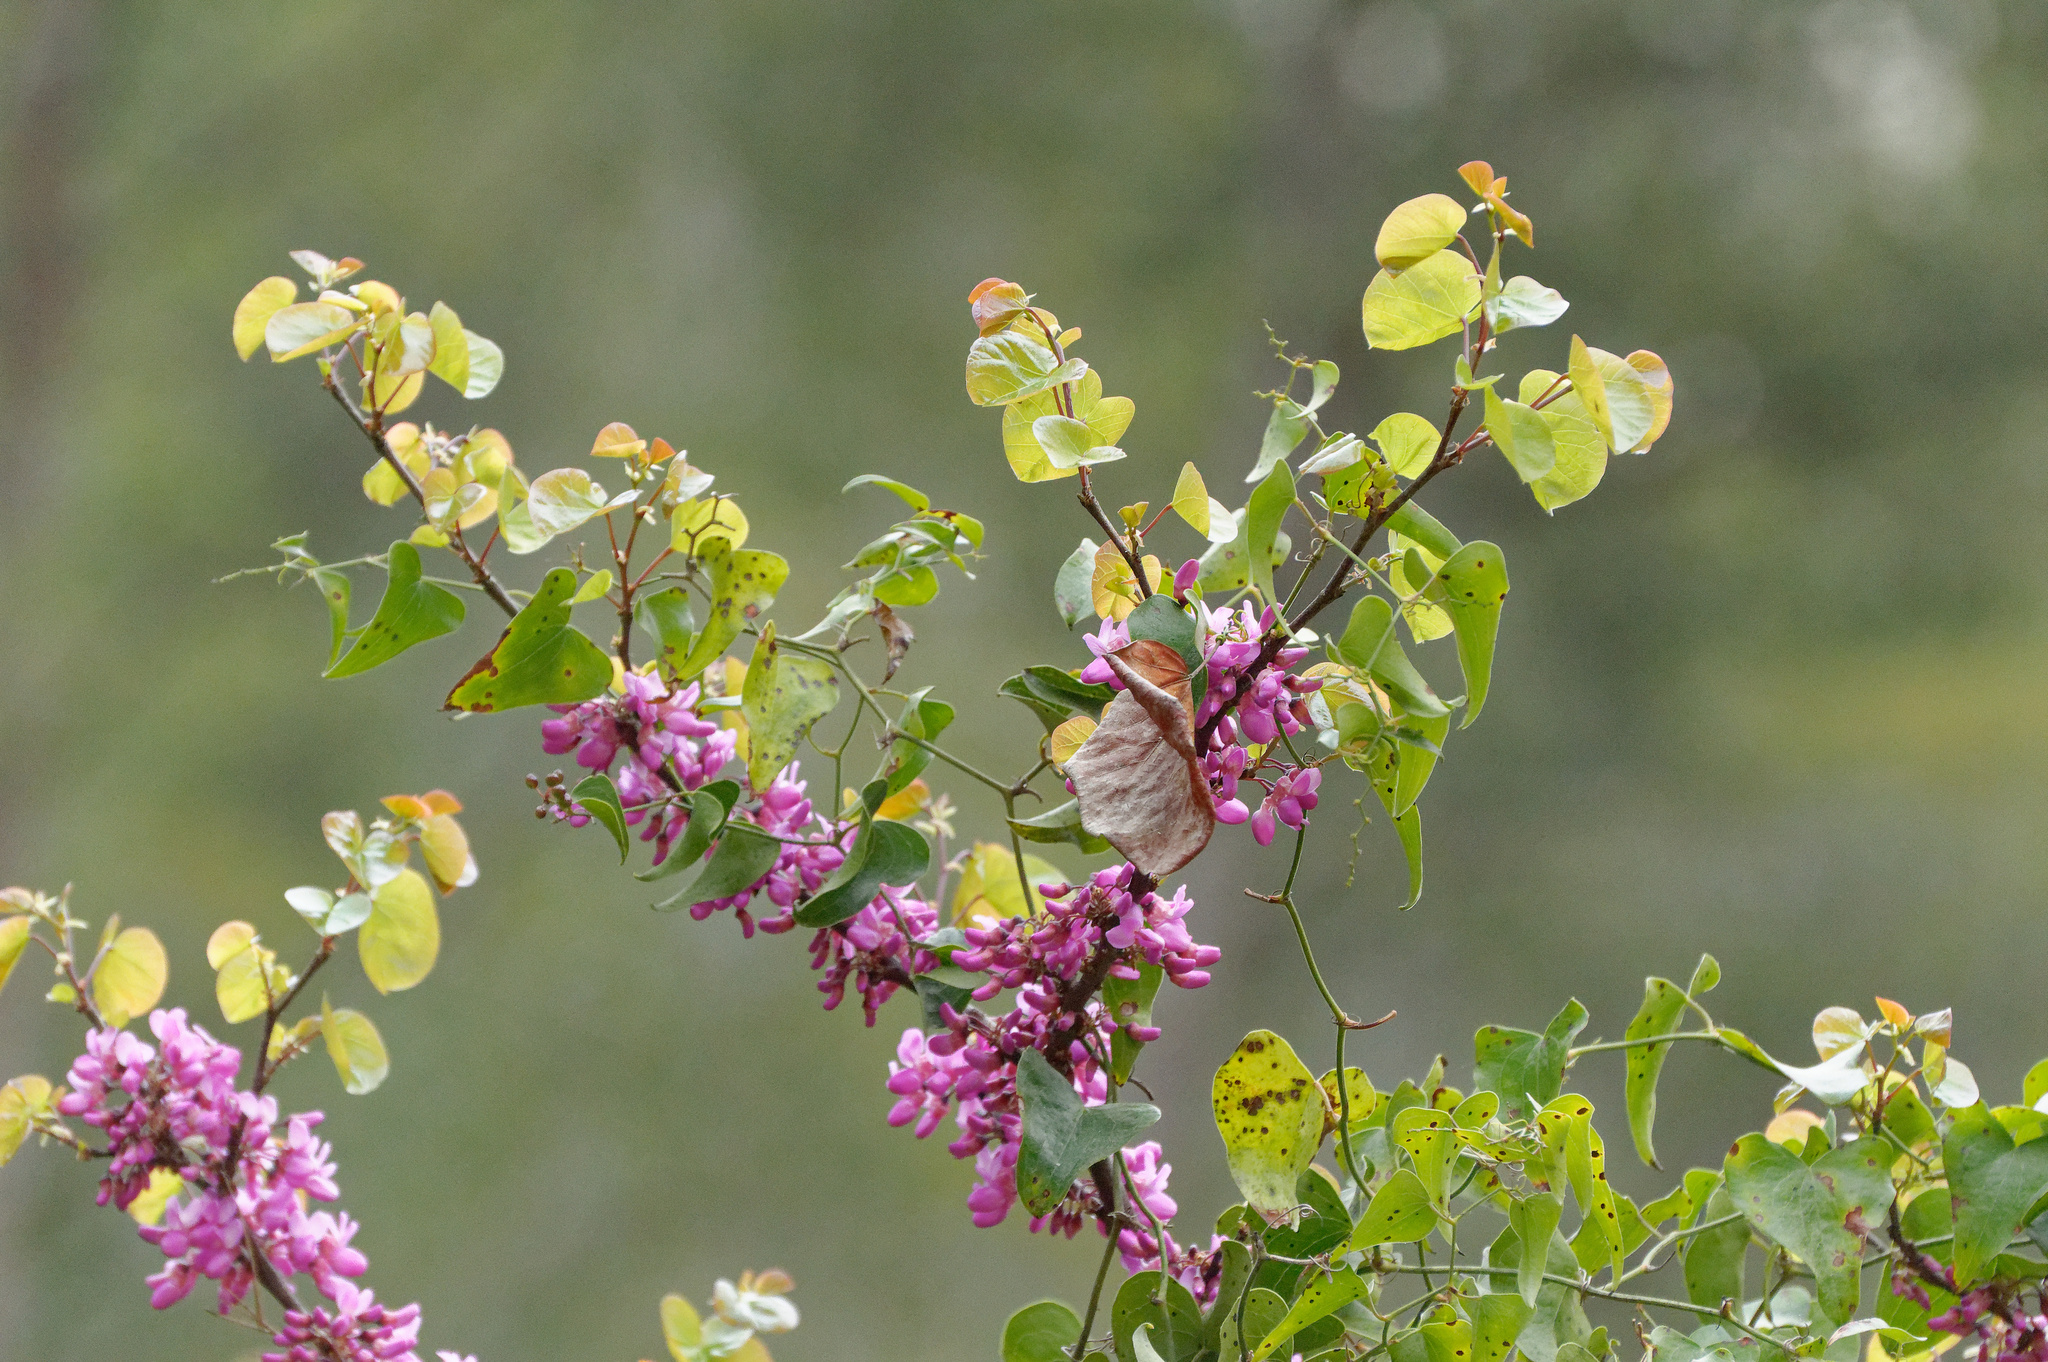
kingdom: Plantae
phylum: Tracheophyta
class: Magnoliopsida
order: Fabales
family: Fabaceae
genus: Cercis
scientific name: Cercis siliquastrum
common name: Judas tree
